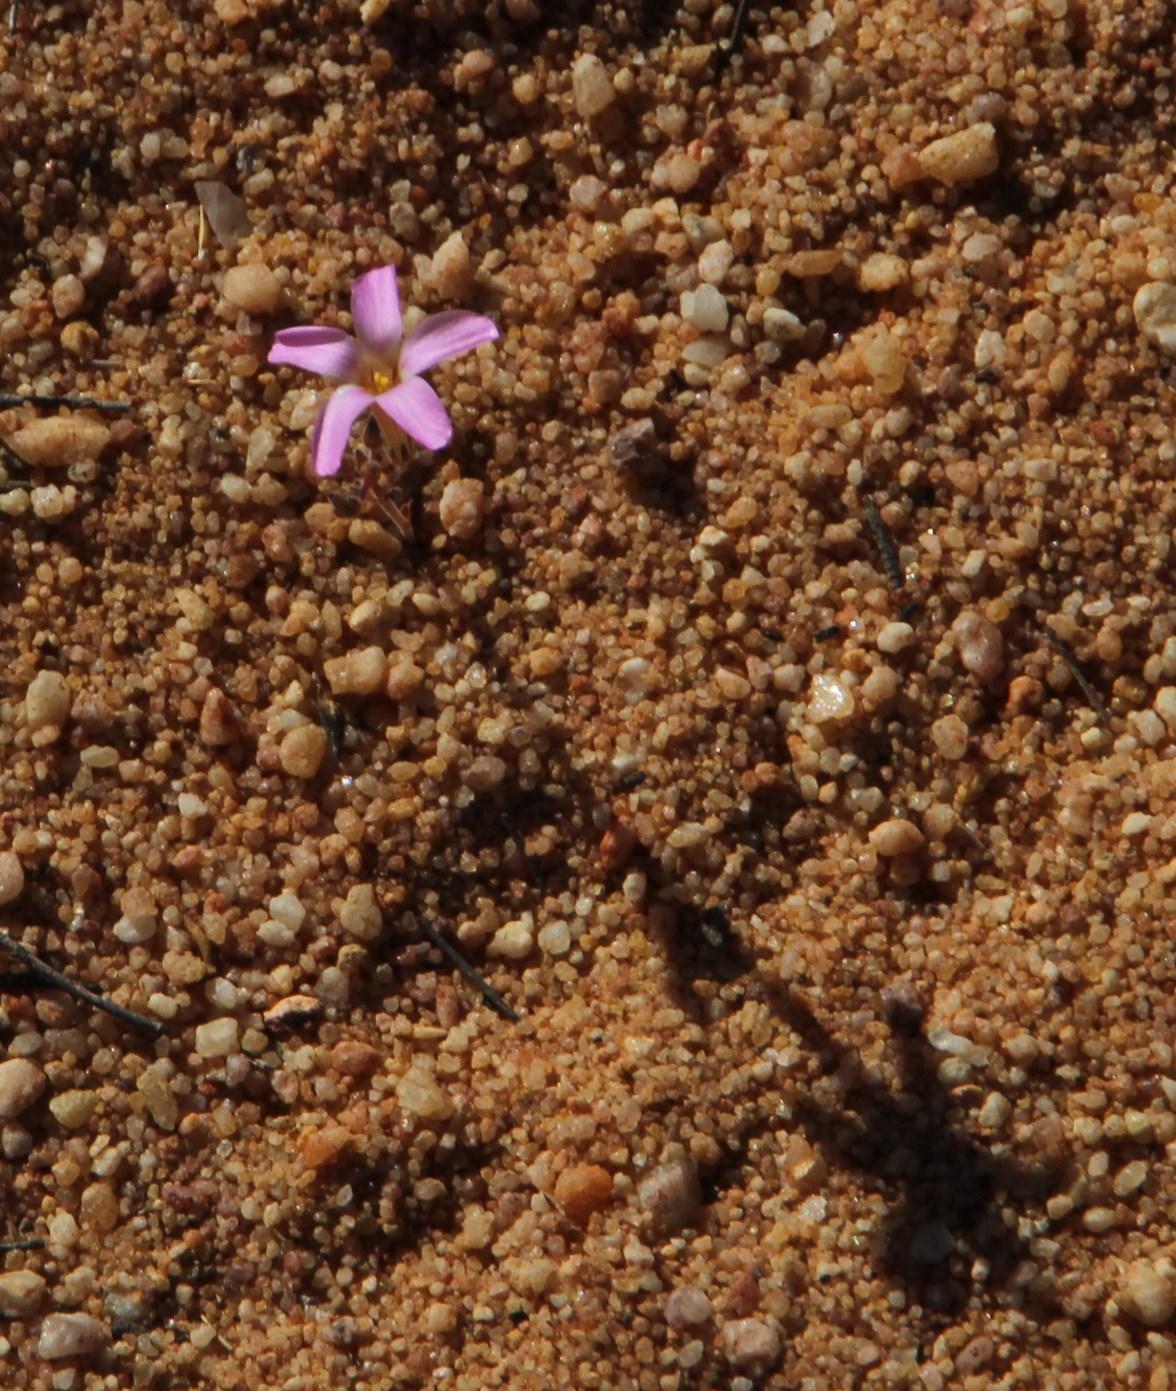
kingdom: Plantae
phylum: Tracheophyta
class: Magnoliopsida
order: Oxalidales
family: Oxalidaceae
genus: Oxalis
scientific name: Oxalis giftbergensis
